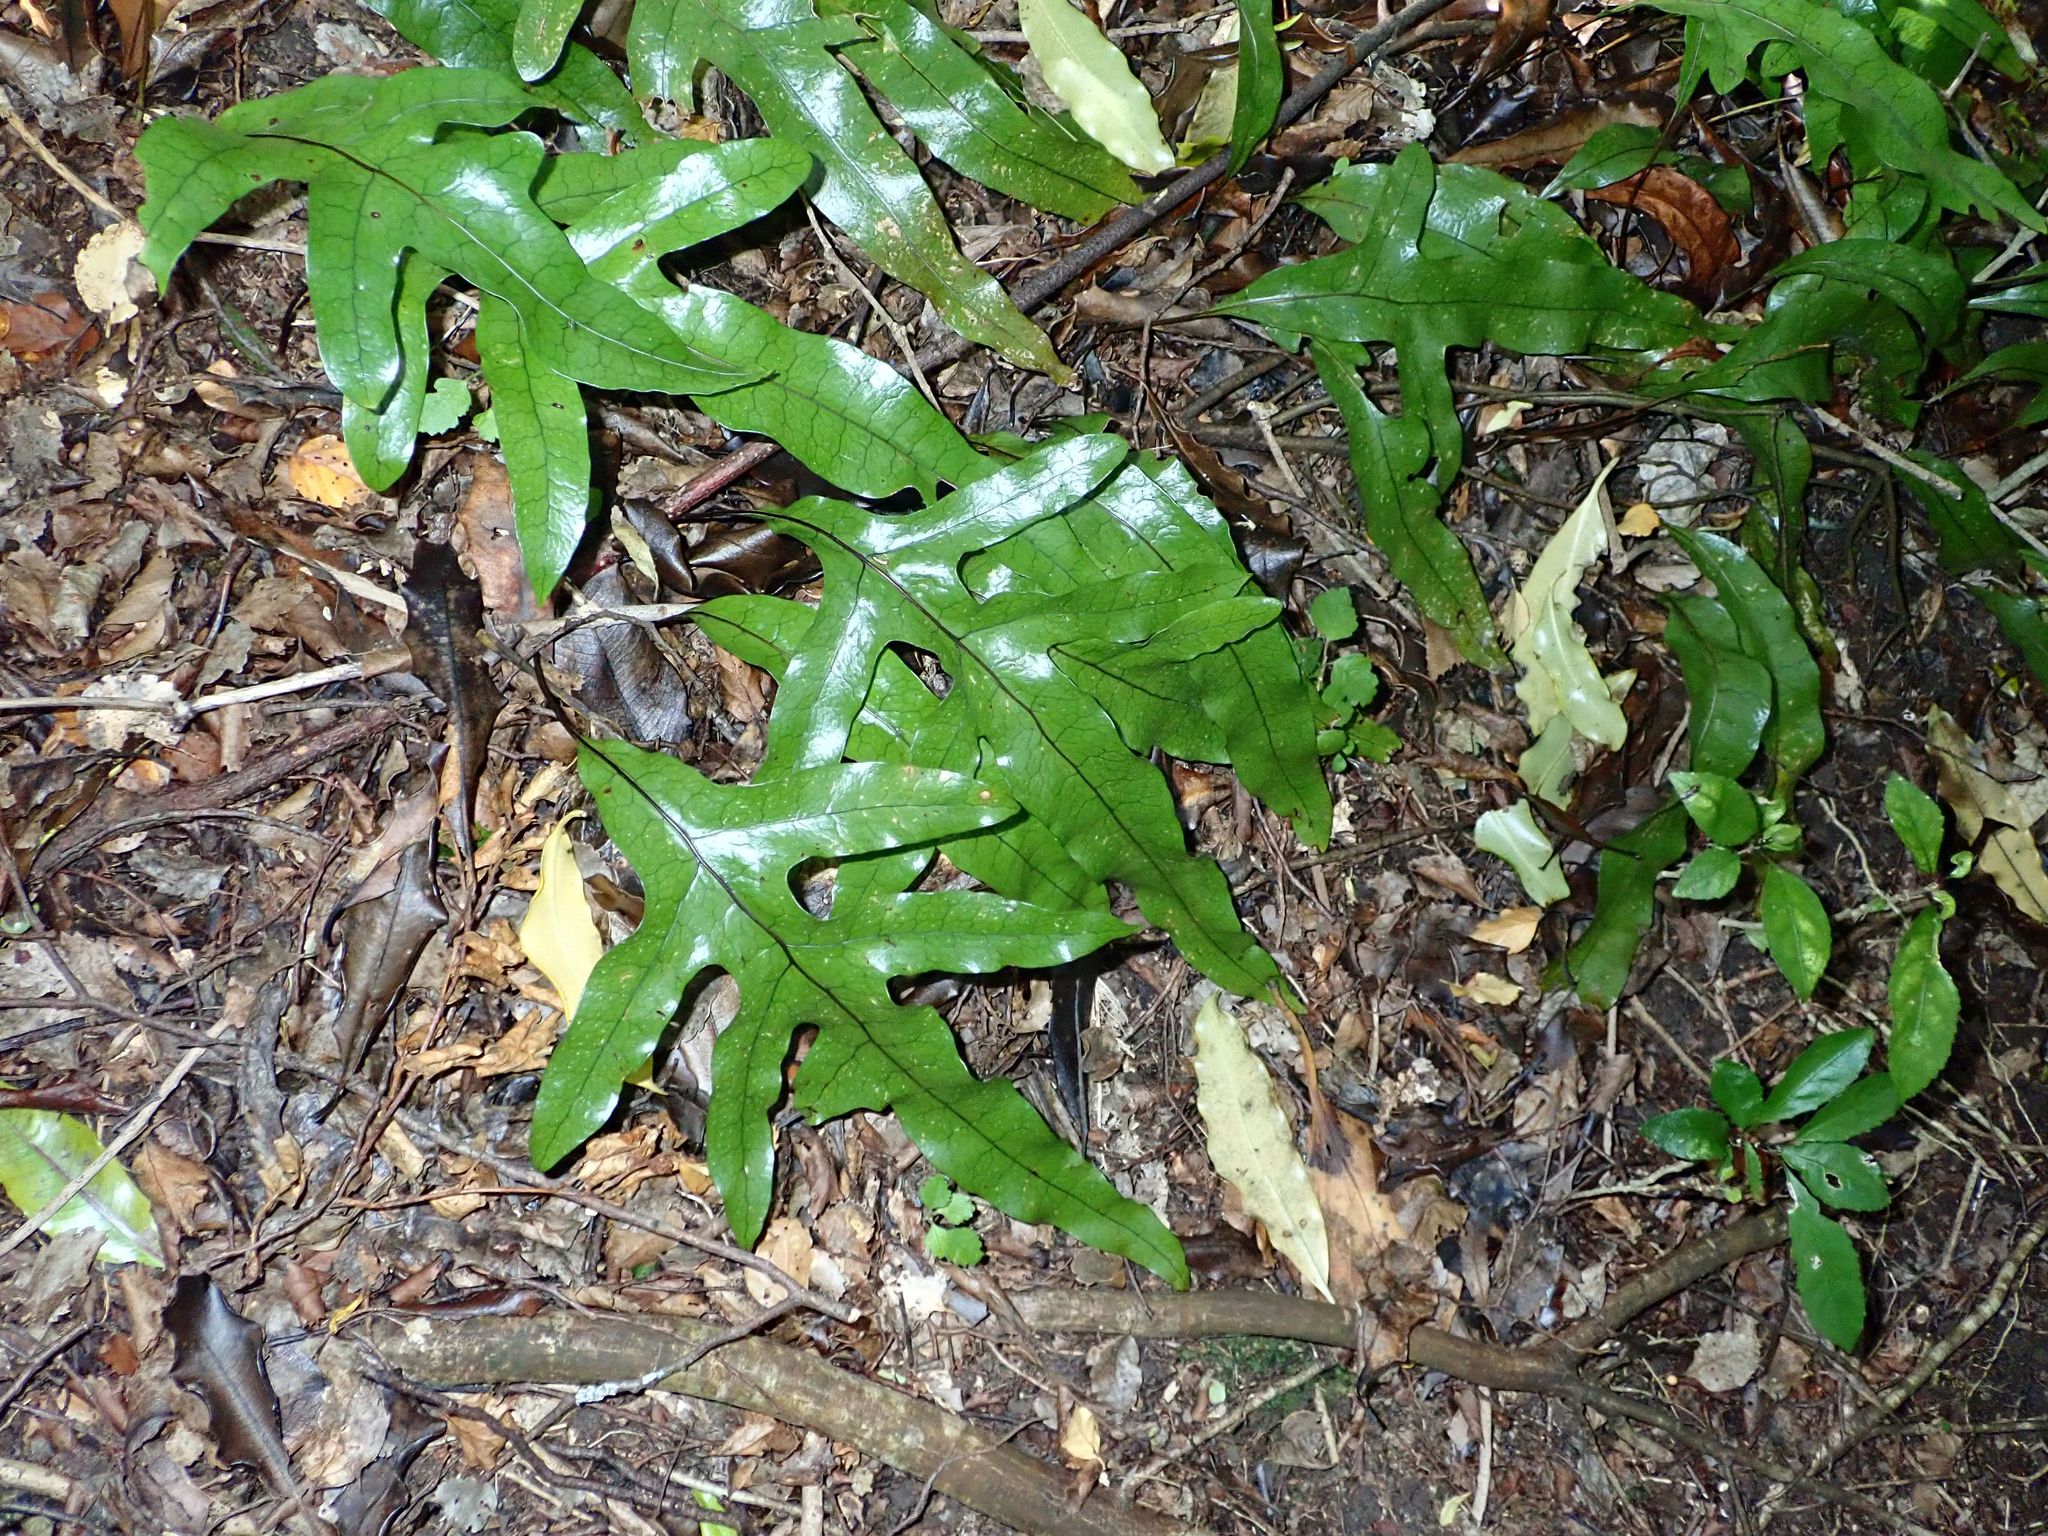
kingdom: Plantae
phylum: Tracheophyta
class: Polypodiopsida
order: Polypodiales
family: Polypodiaceae
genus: Lecanopteris
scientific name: Lecanopteris pustulata
